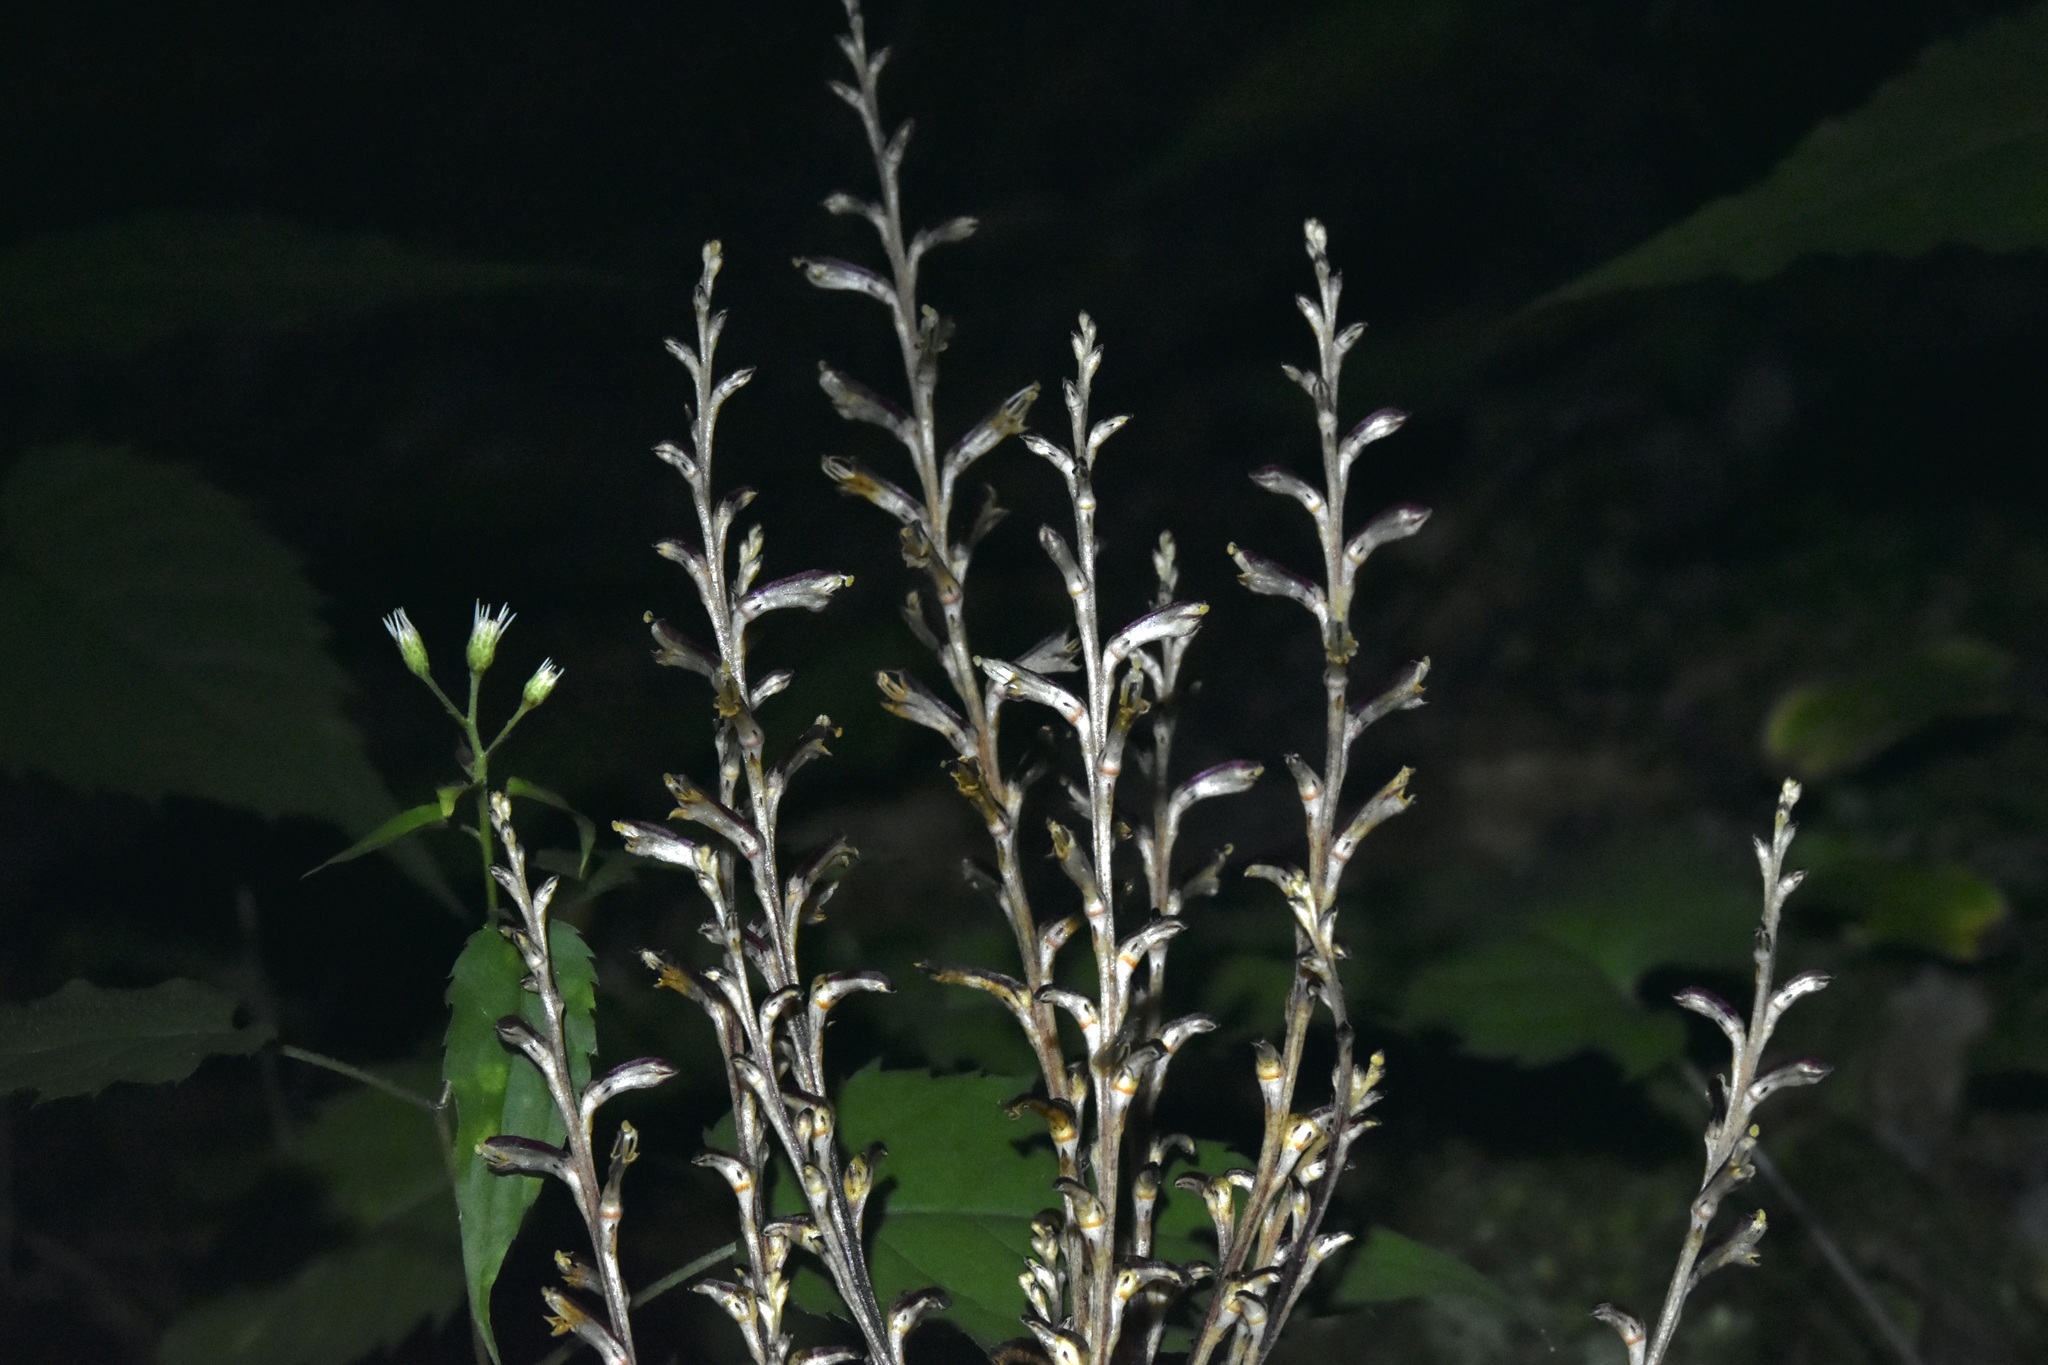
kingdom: Plantae
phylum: Tracheophyta
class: Magnoliopsida
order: Lamiales
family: Orobanchaceae
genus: Epifagus
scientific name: Epifagus virginiana
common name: Beechdrops
